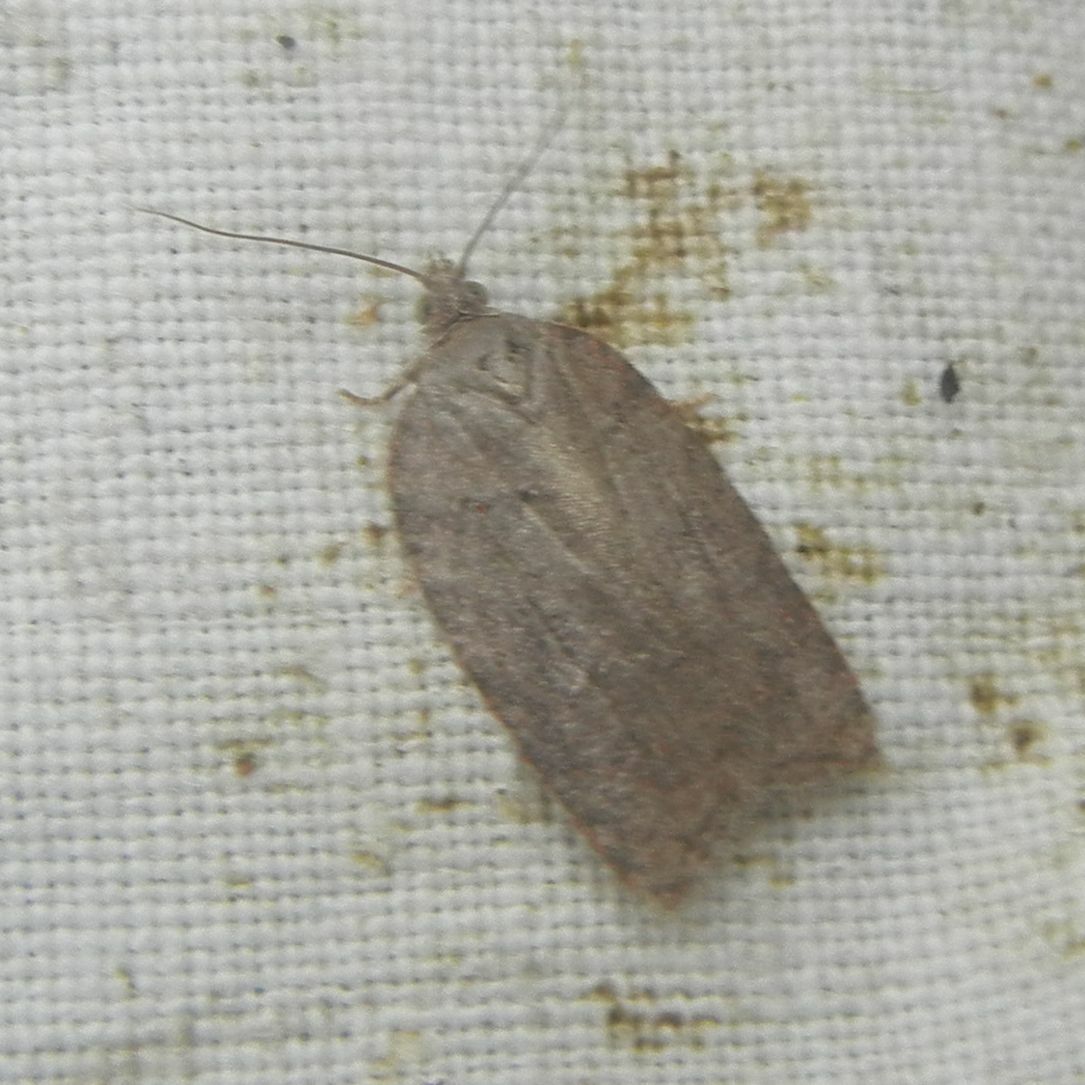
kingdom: Animalia
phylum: Arthropoda
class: Insecta
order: Lepidoptera
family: Tortricidae
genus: Acleris
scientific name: Acleris sparsana
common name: Ashy button
